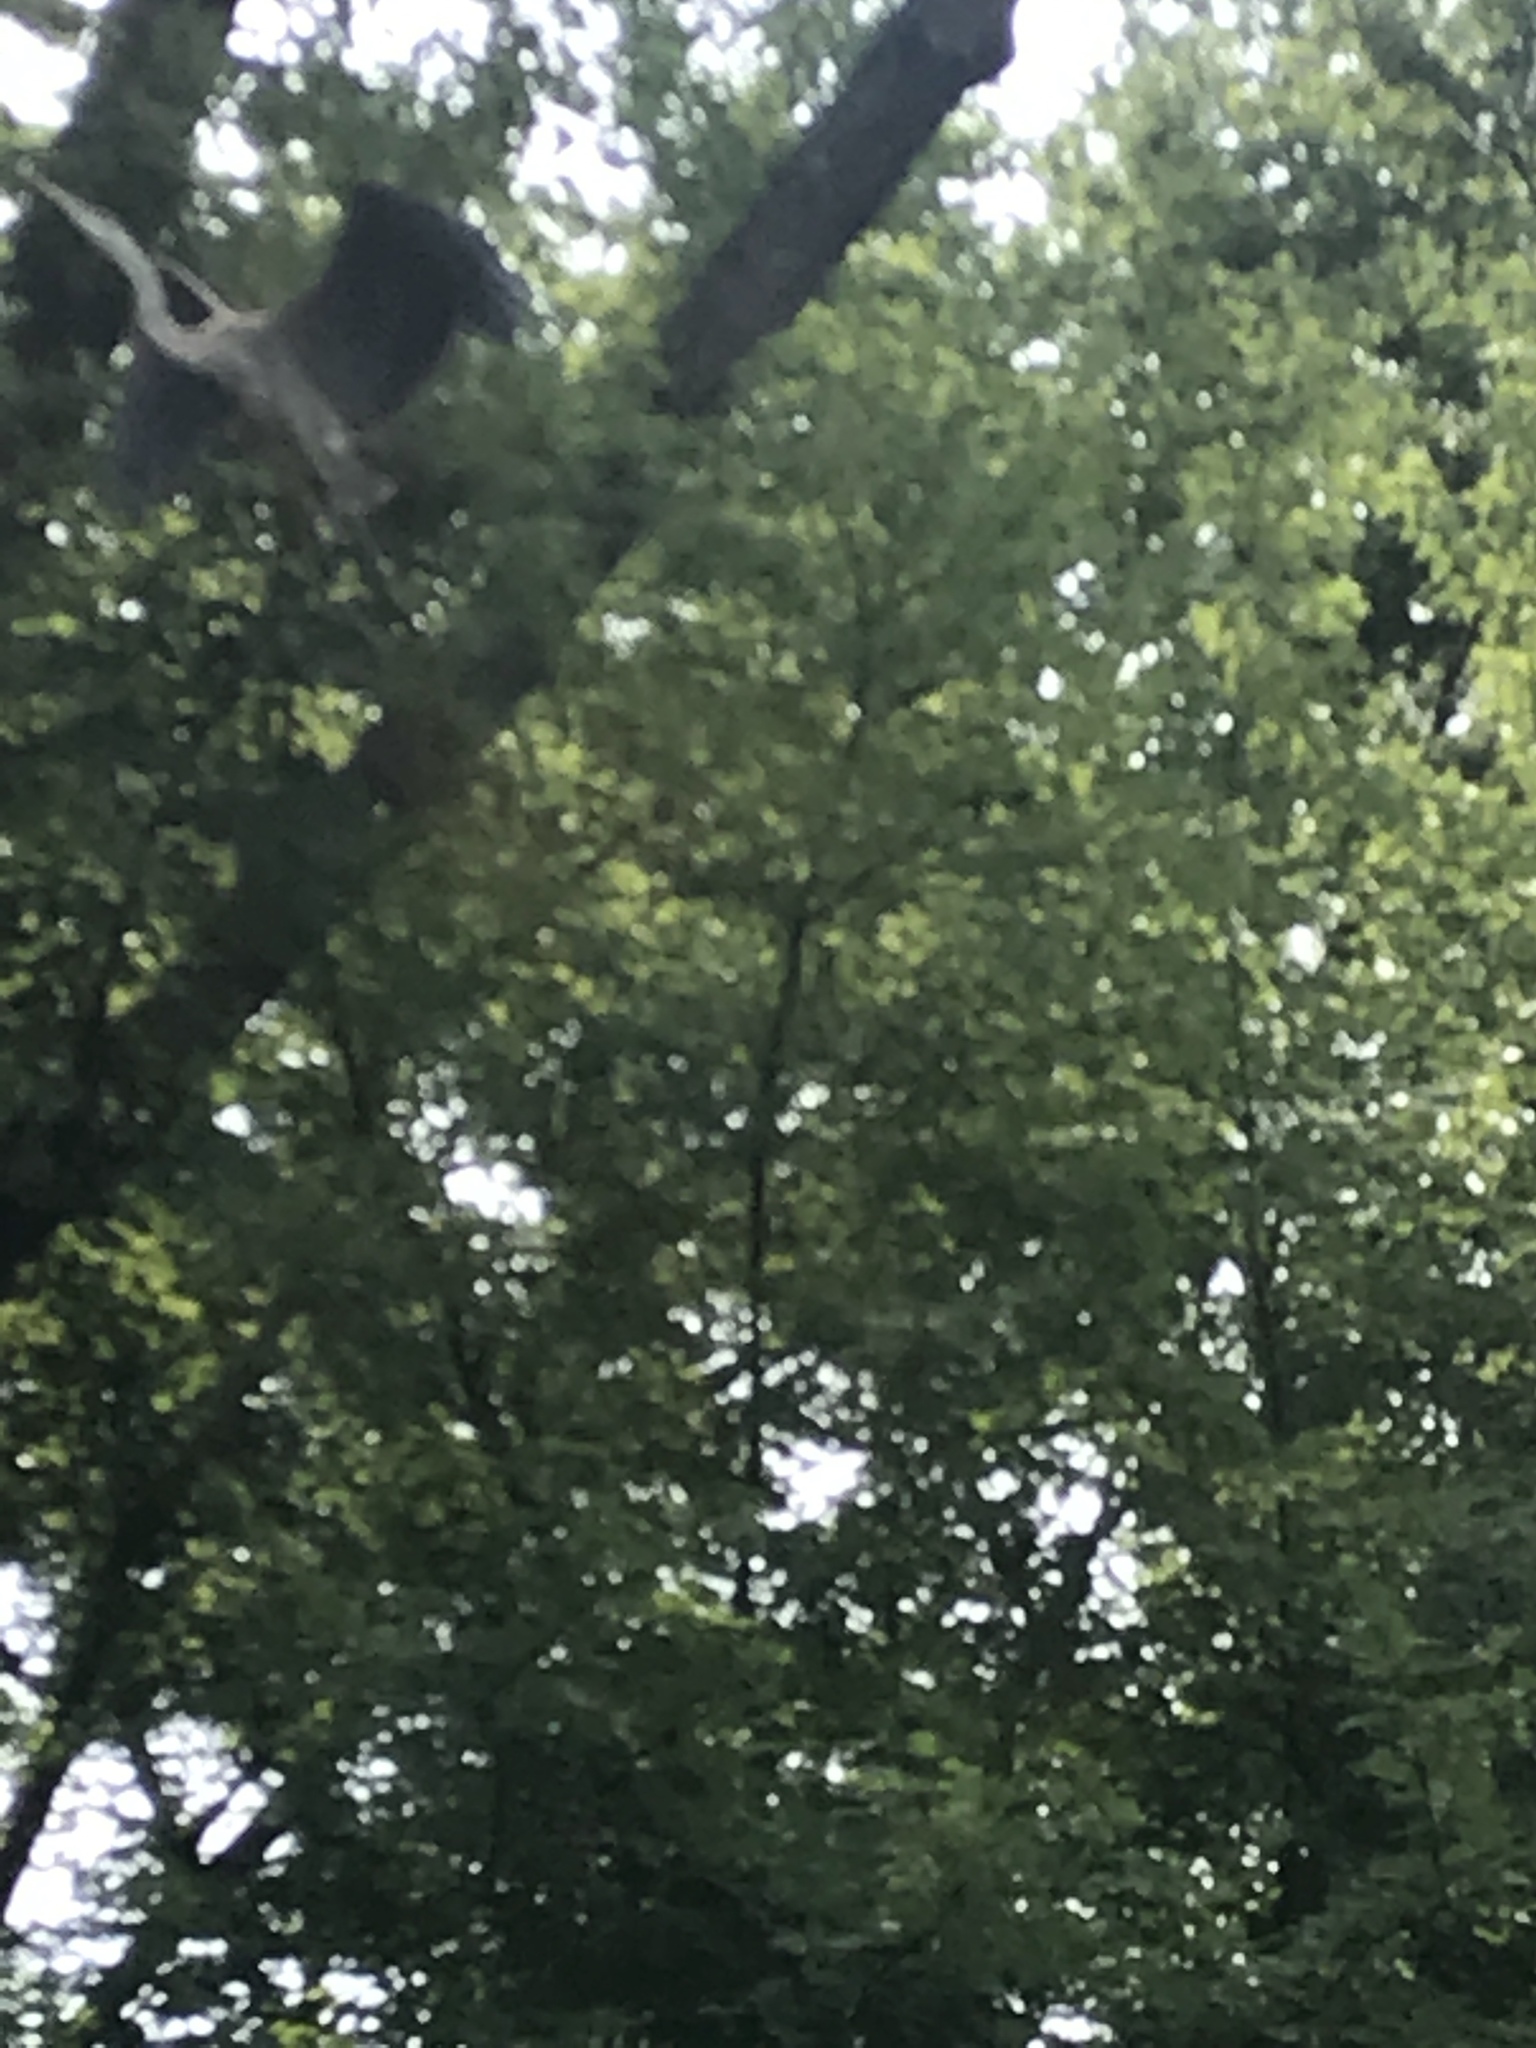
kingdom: Animalia
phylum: Chordata
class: Aves
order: Pelecaniformes
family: Ardeidae
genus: Ardea
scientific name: Ardea herodias
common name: Great blue heron
